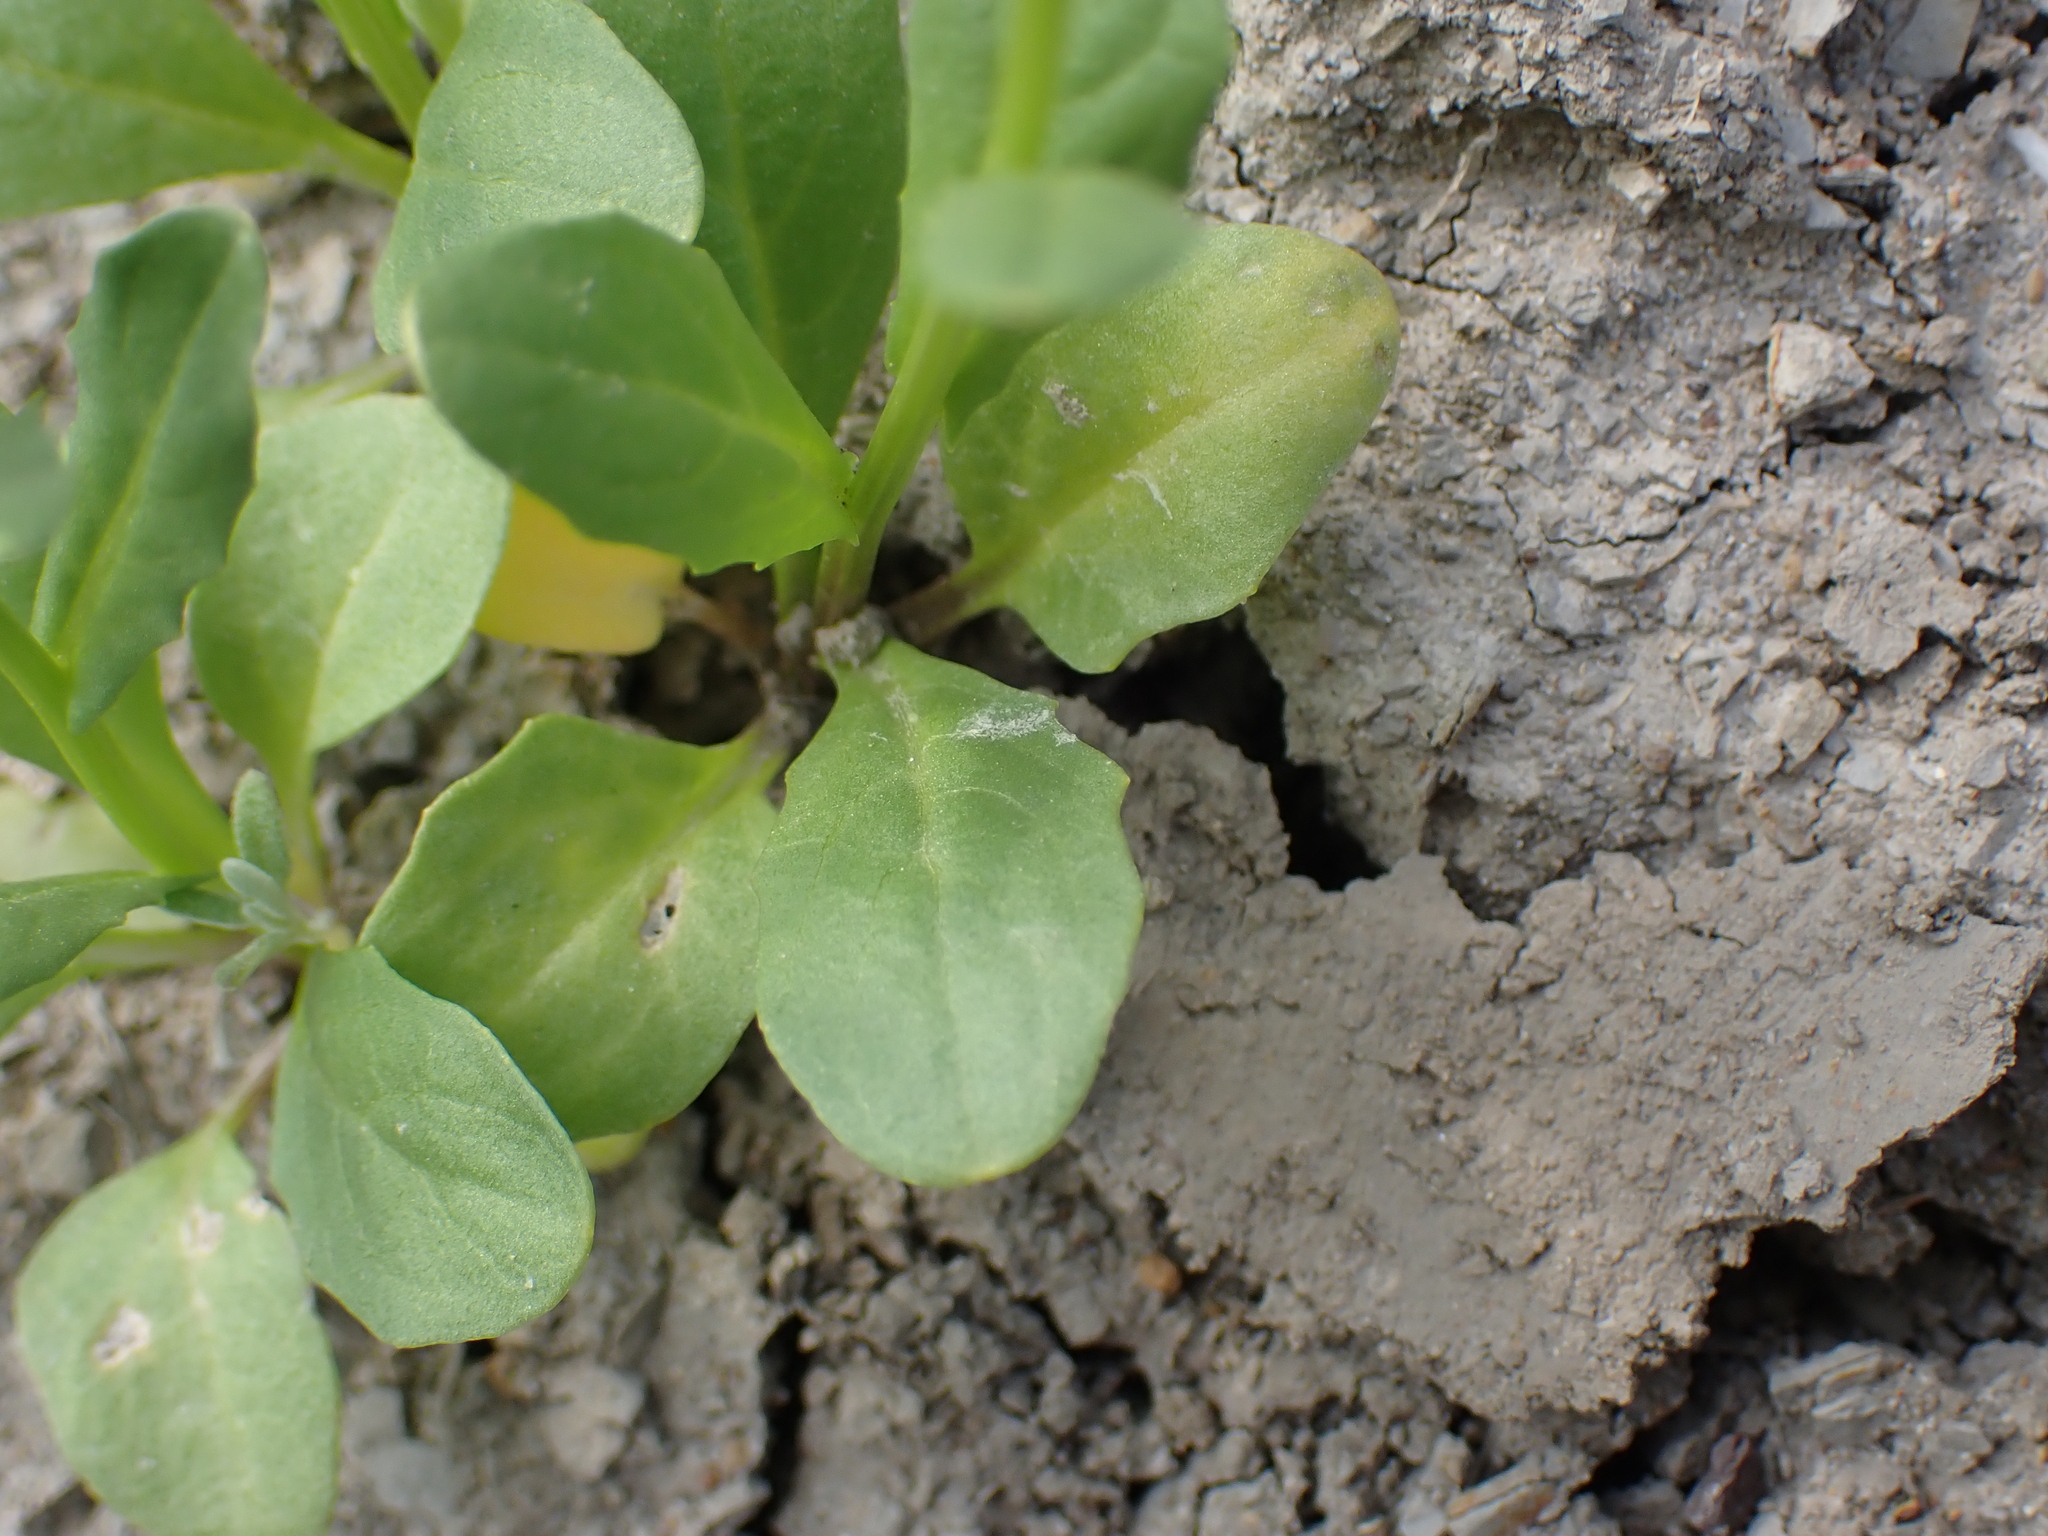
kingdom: Plantae
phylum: Tracheophyta
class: Magnoliopsida
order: Brassicales
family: Brassicaceae
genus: Thlaspi
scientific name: Thlaspi arvense
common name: Field pennycress
